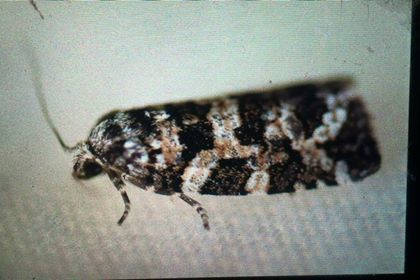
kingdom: Animalia
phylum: Arthropoda
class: Insecta
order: Lepidoptera
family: Tortricidae
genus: Archips
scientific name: Archips packardiana
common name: Spring spruce needle moth
